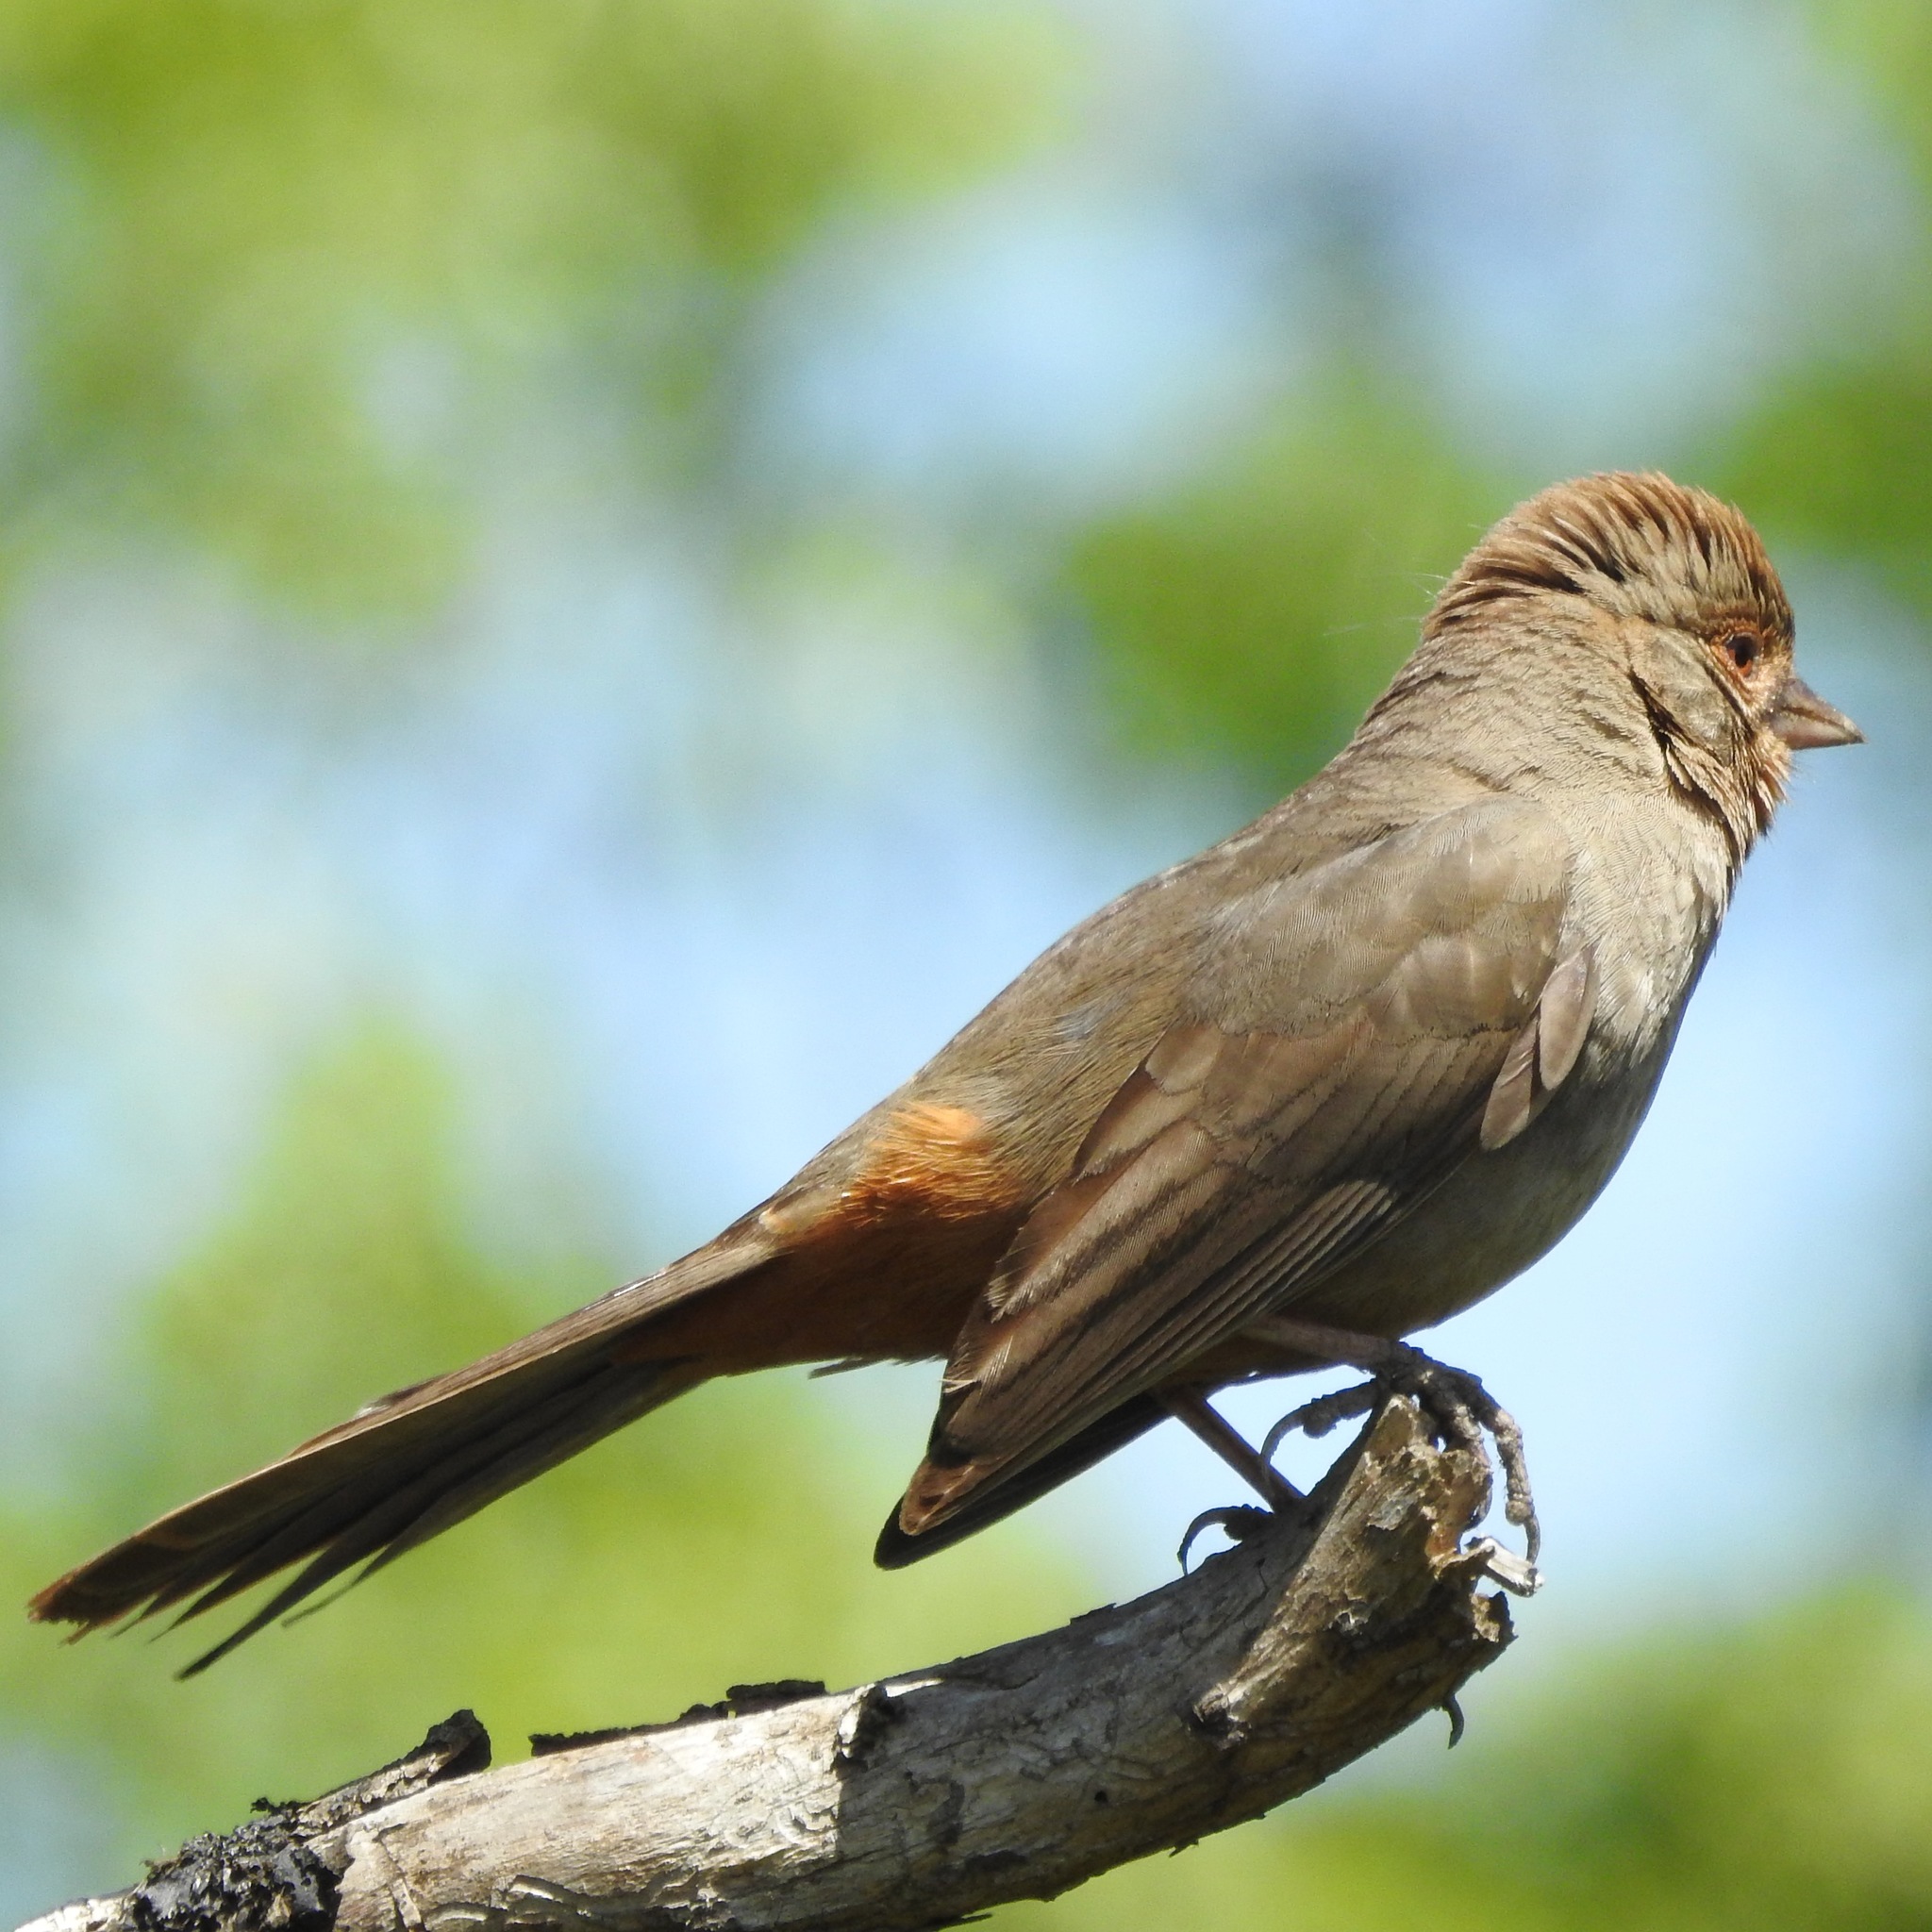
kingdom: Animalia
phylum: Chordata
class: Aves
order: Passeriformes
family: Passerellidae
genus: Melozone
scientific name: Melozone crissalis
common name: California towhee
